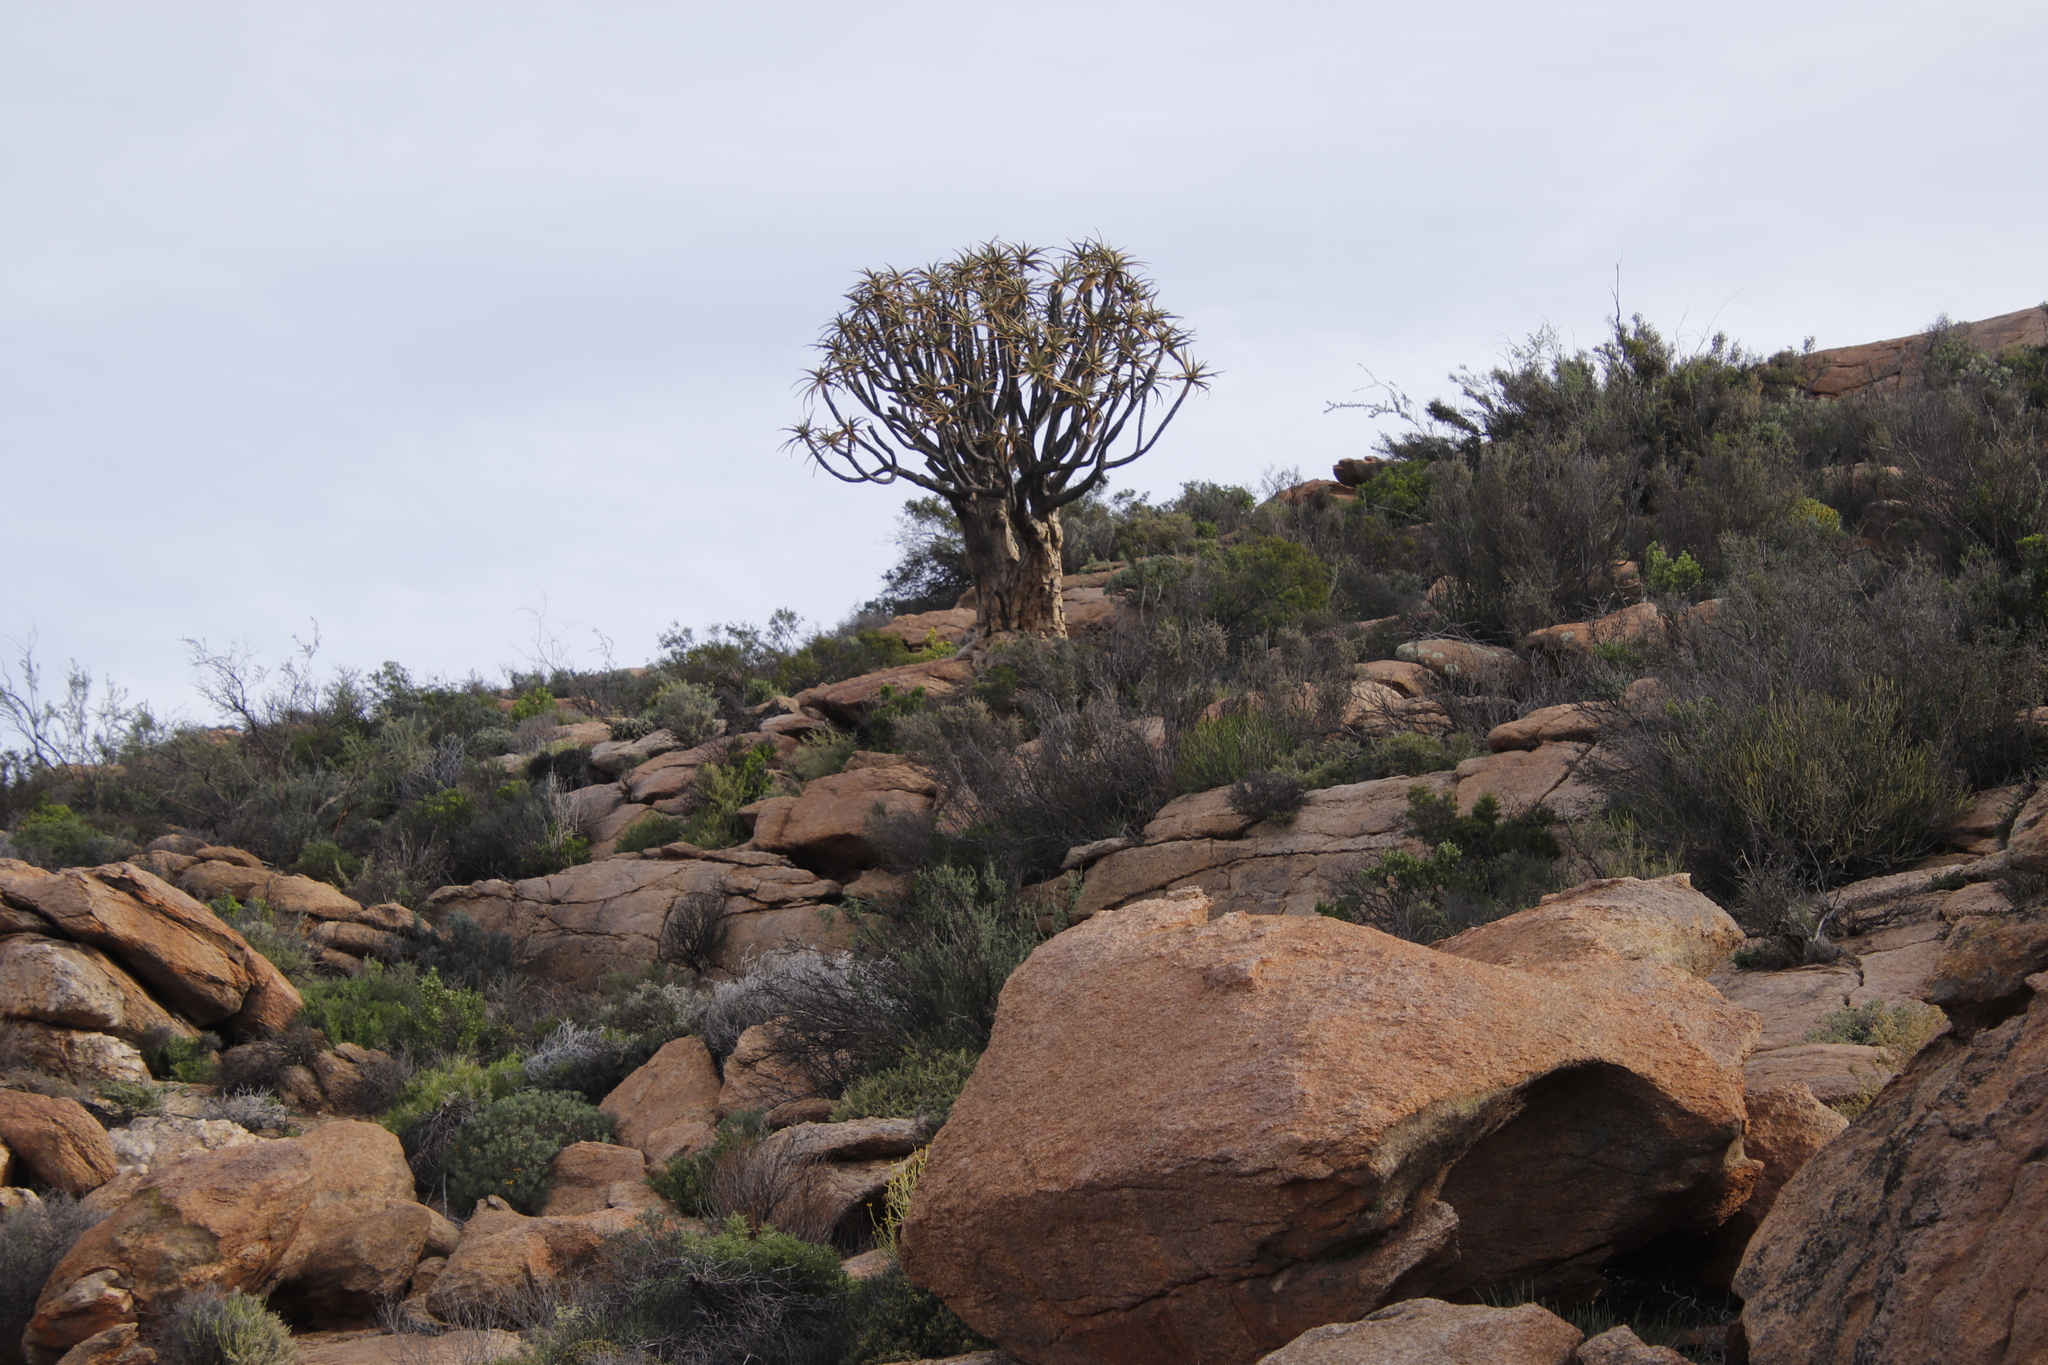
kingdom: Plantae
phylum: Tracheophyta
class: Liliopsida
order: Asparagales
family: Asphodelaceae
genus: Aloidendron
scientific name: Aloidendron dichotomum
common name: Quiver tree
